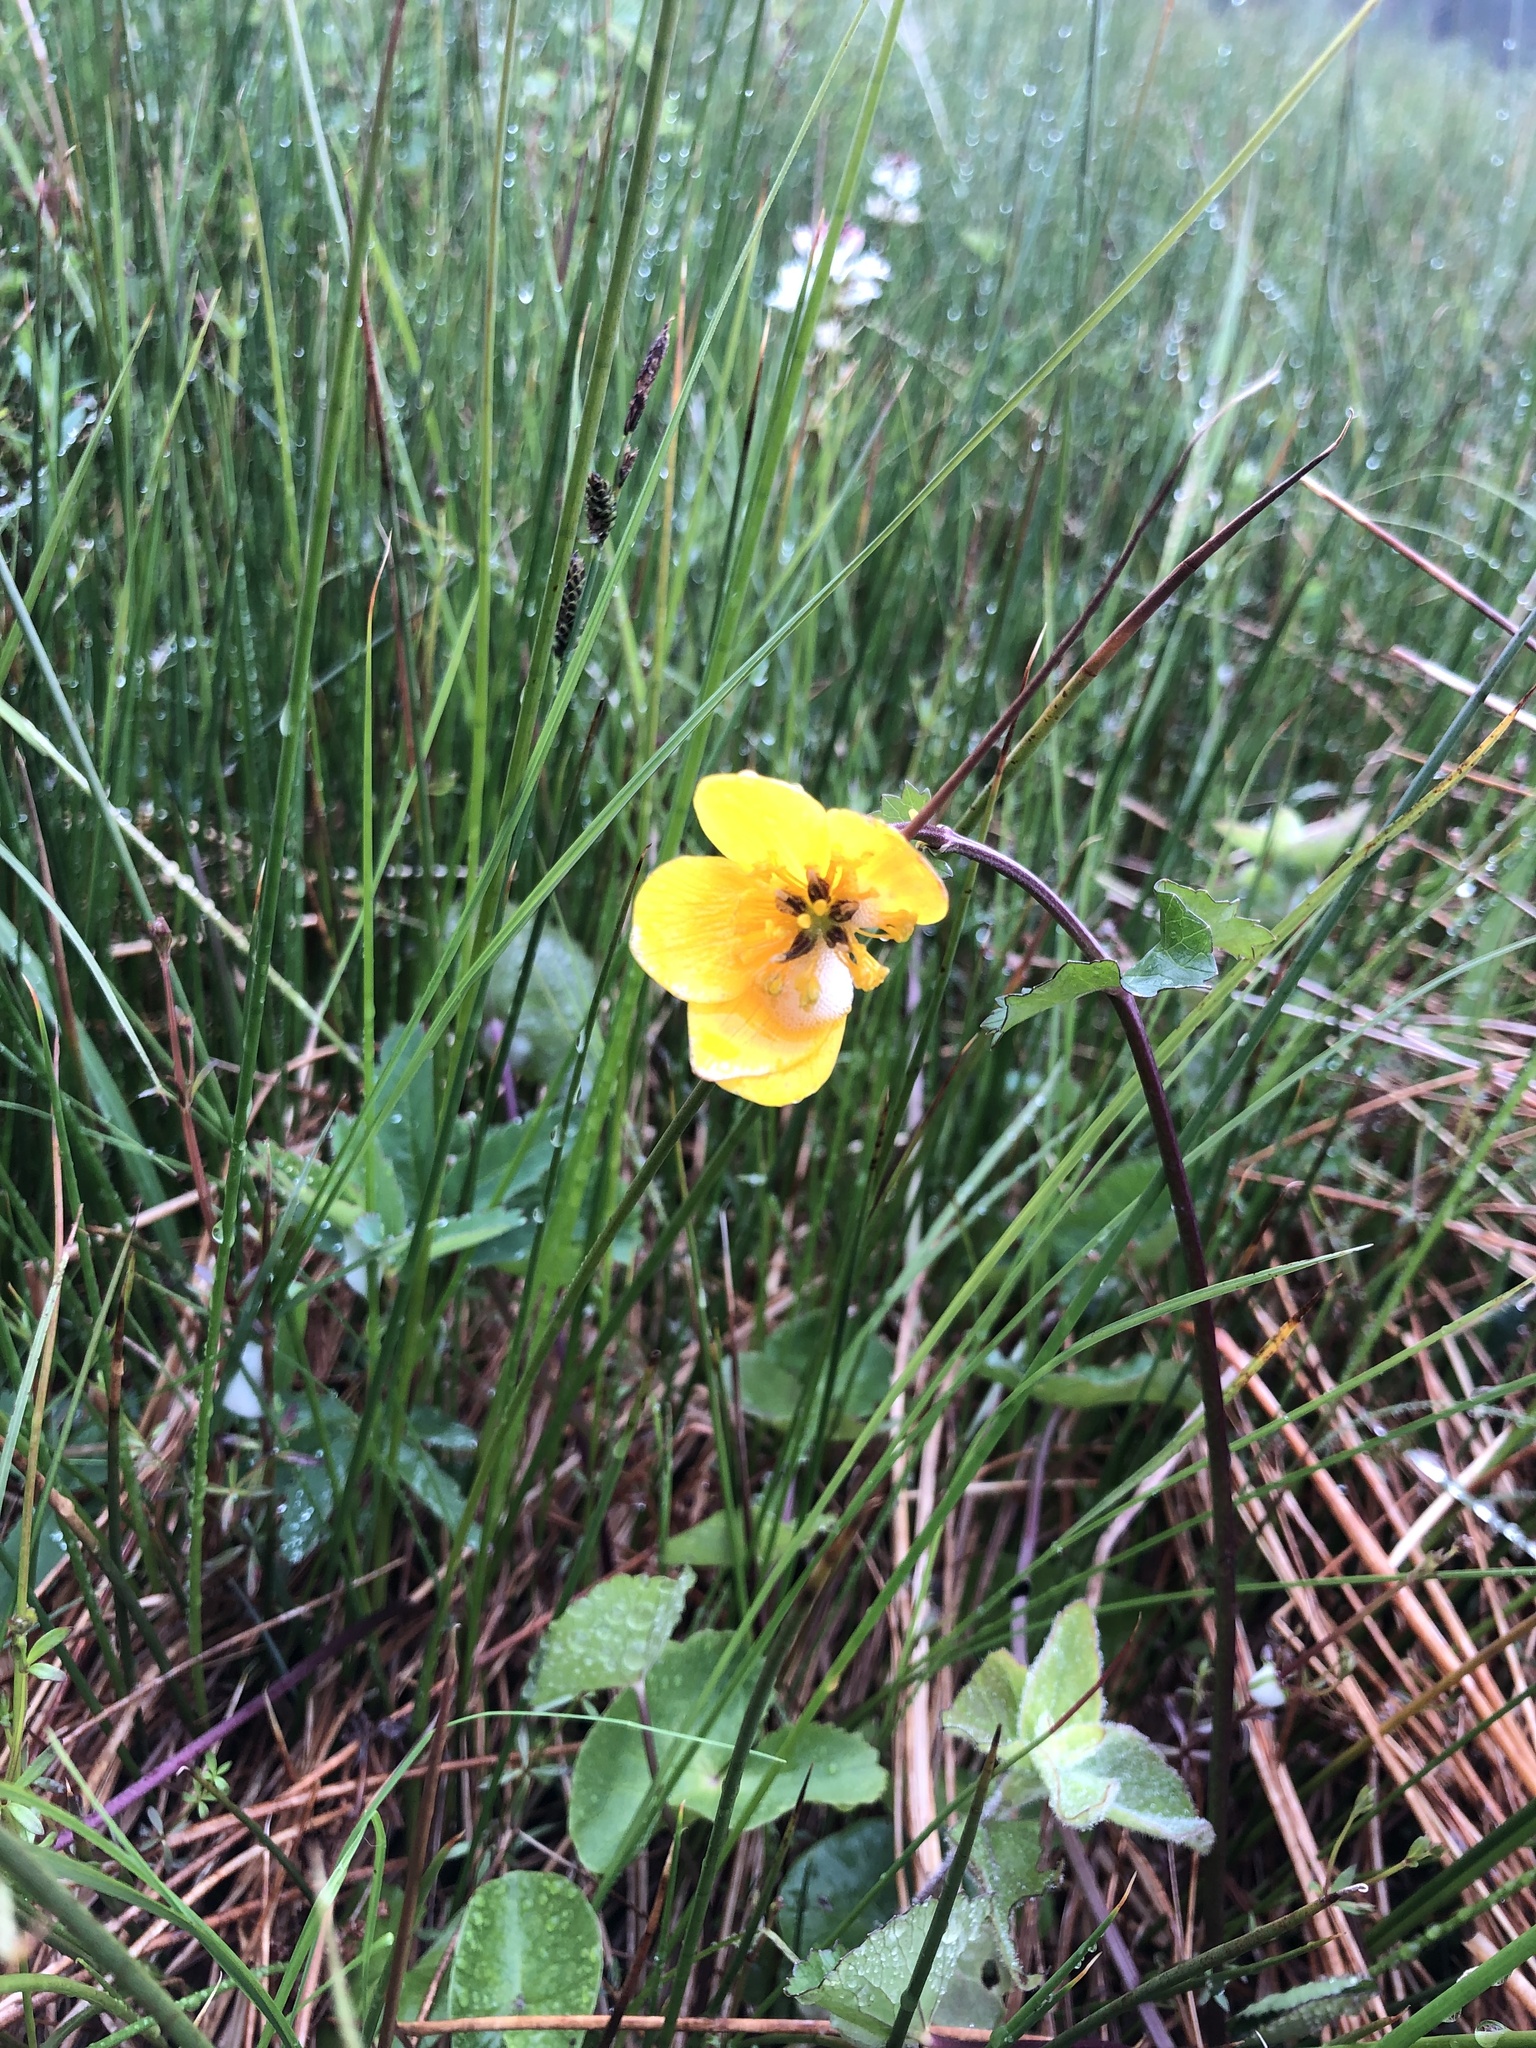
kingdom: Plantae
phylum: Tracheophyta
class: Magnoliopsida
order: Ranunculales
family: Ranunculaceae
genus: Caltha
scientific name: Caltha palustris
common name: Marsh marigold
